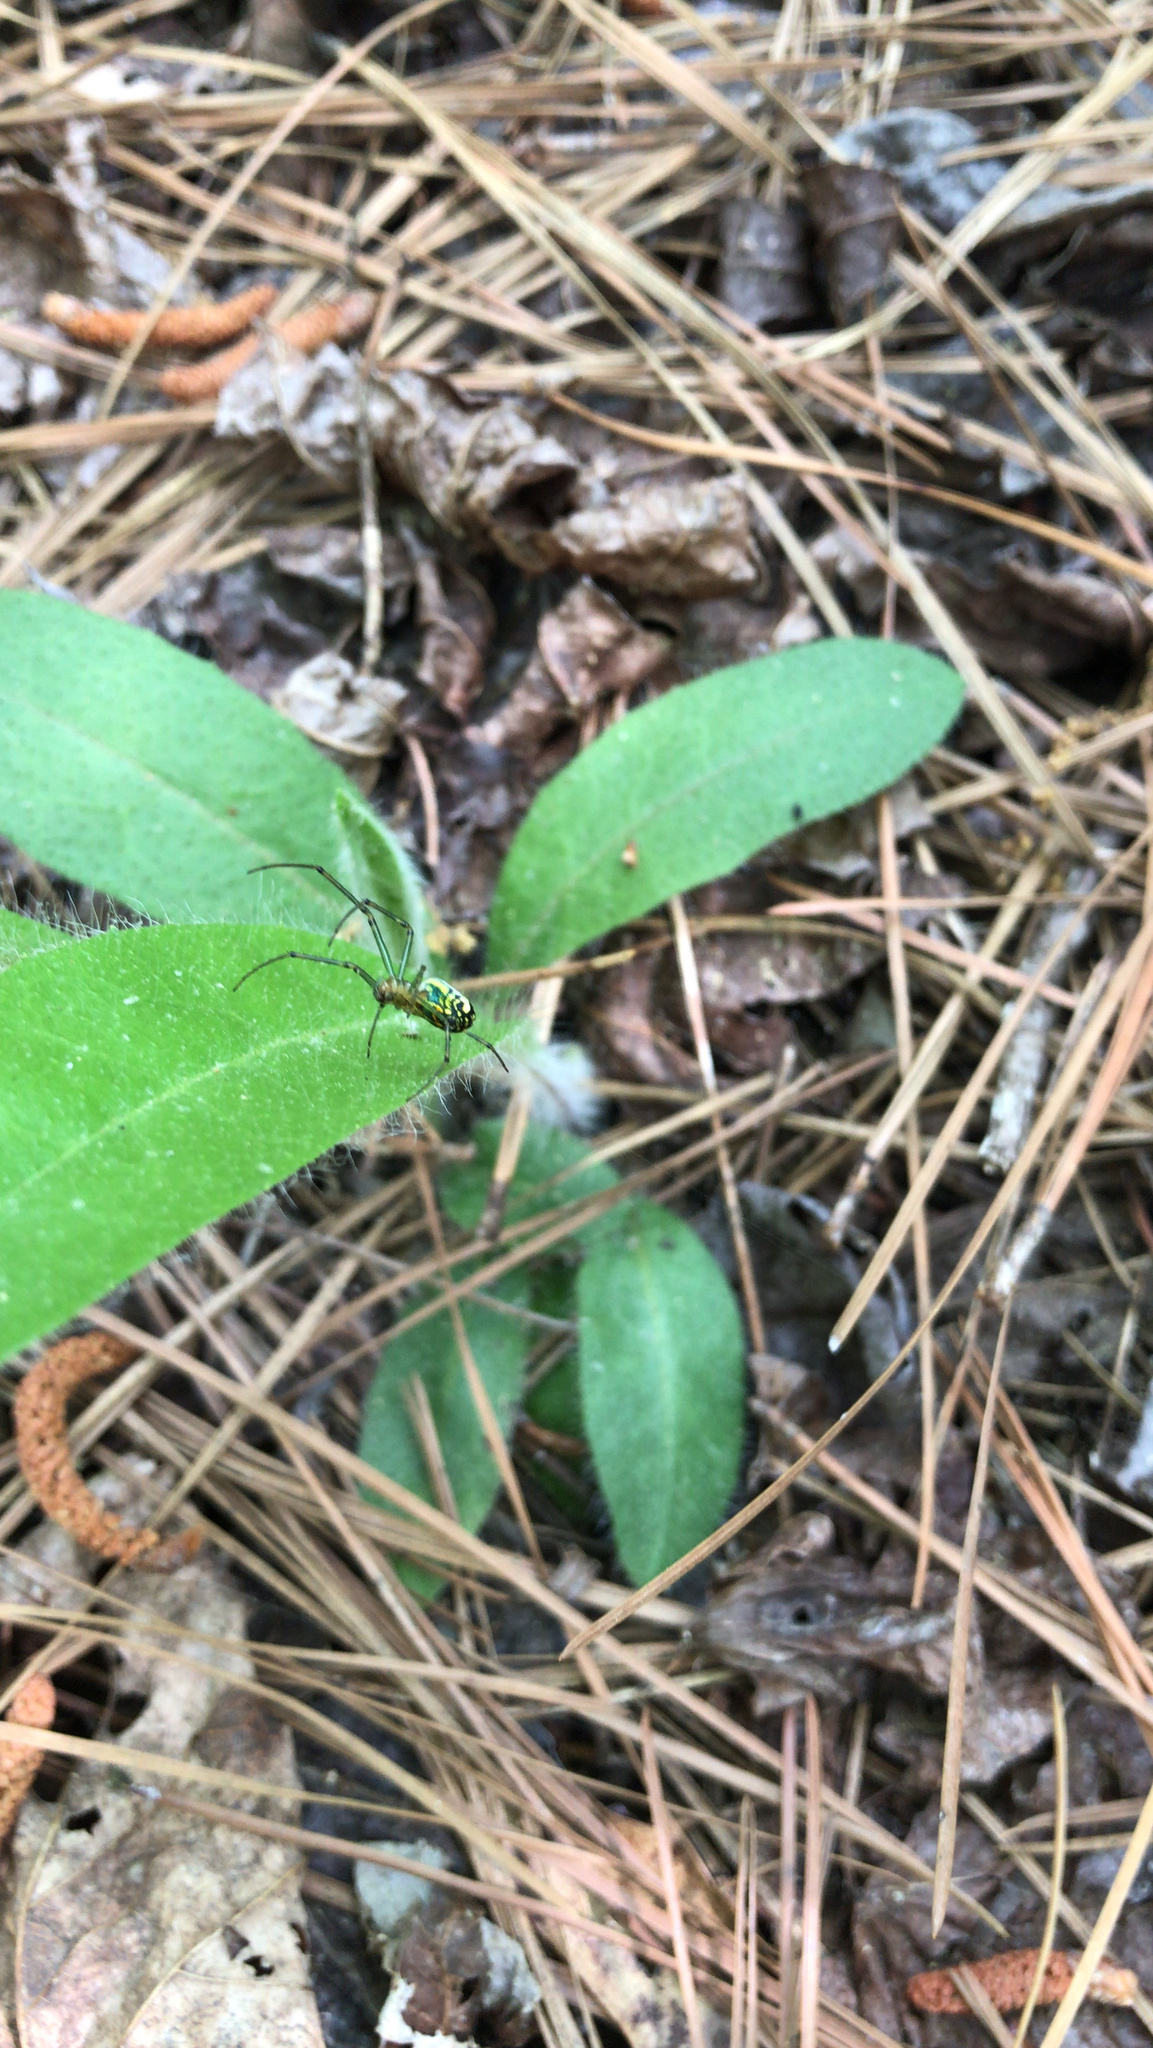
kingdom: Animalia
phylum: Arthropoda
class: Arachnida
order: Araneae
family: Tetragnathidae
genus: Leucauge
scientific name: Leucauge venusta
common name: Longjawed orb weavers
